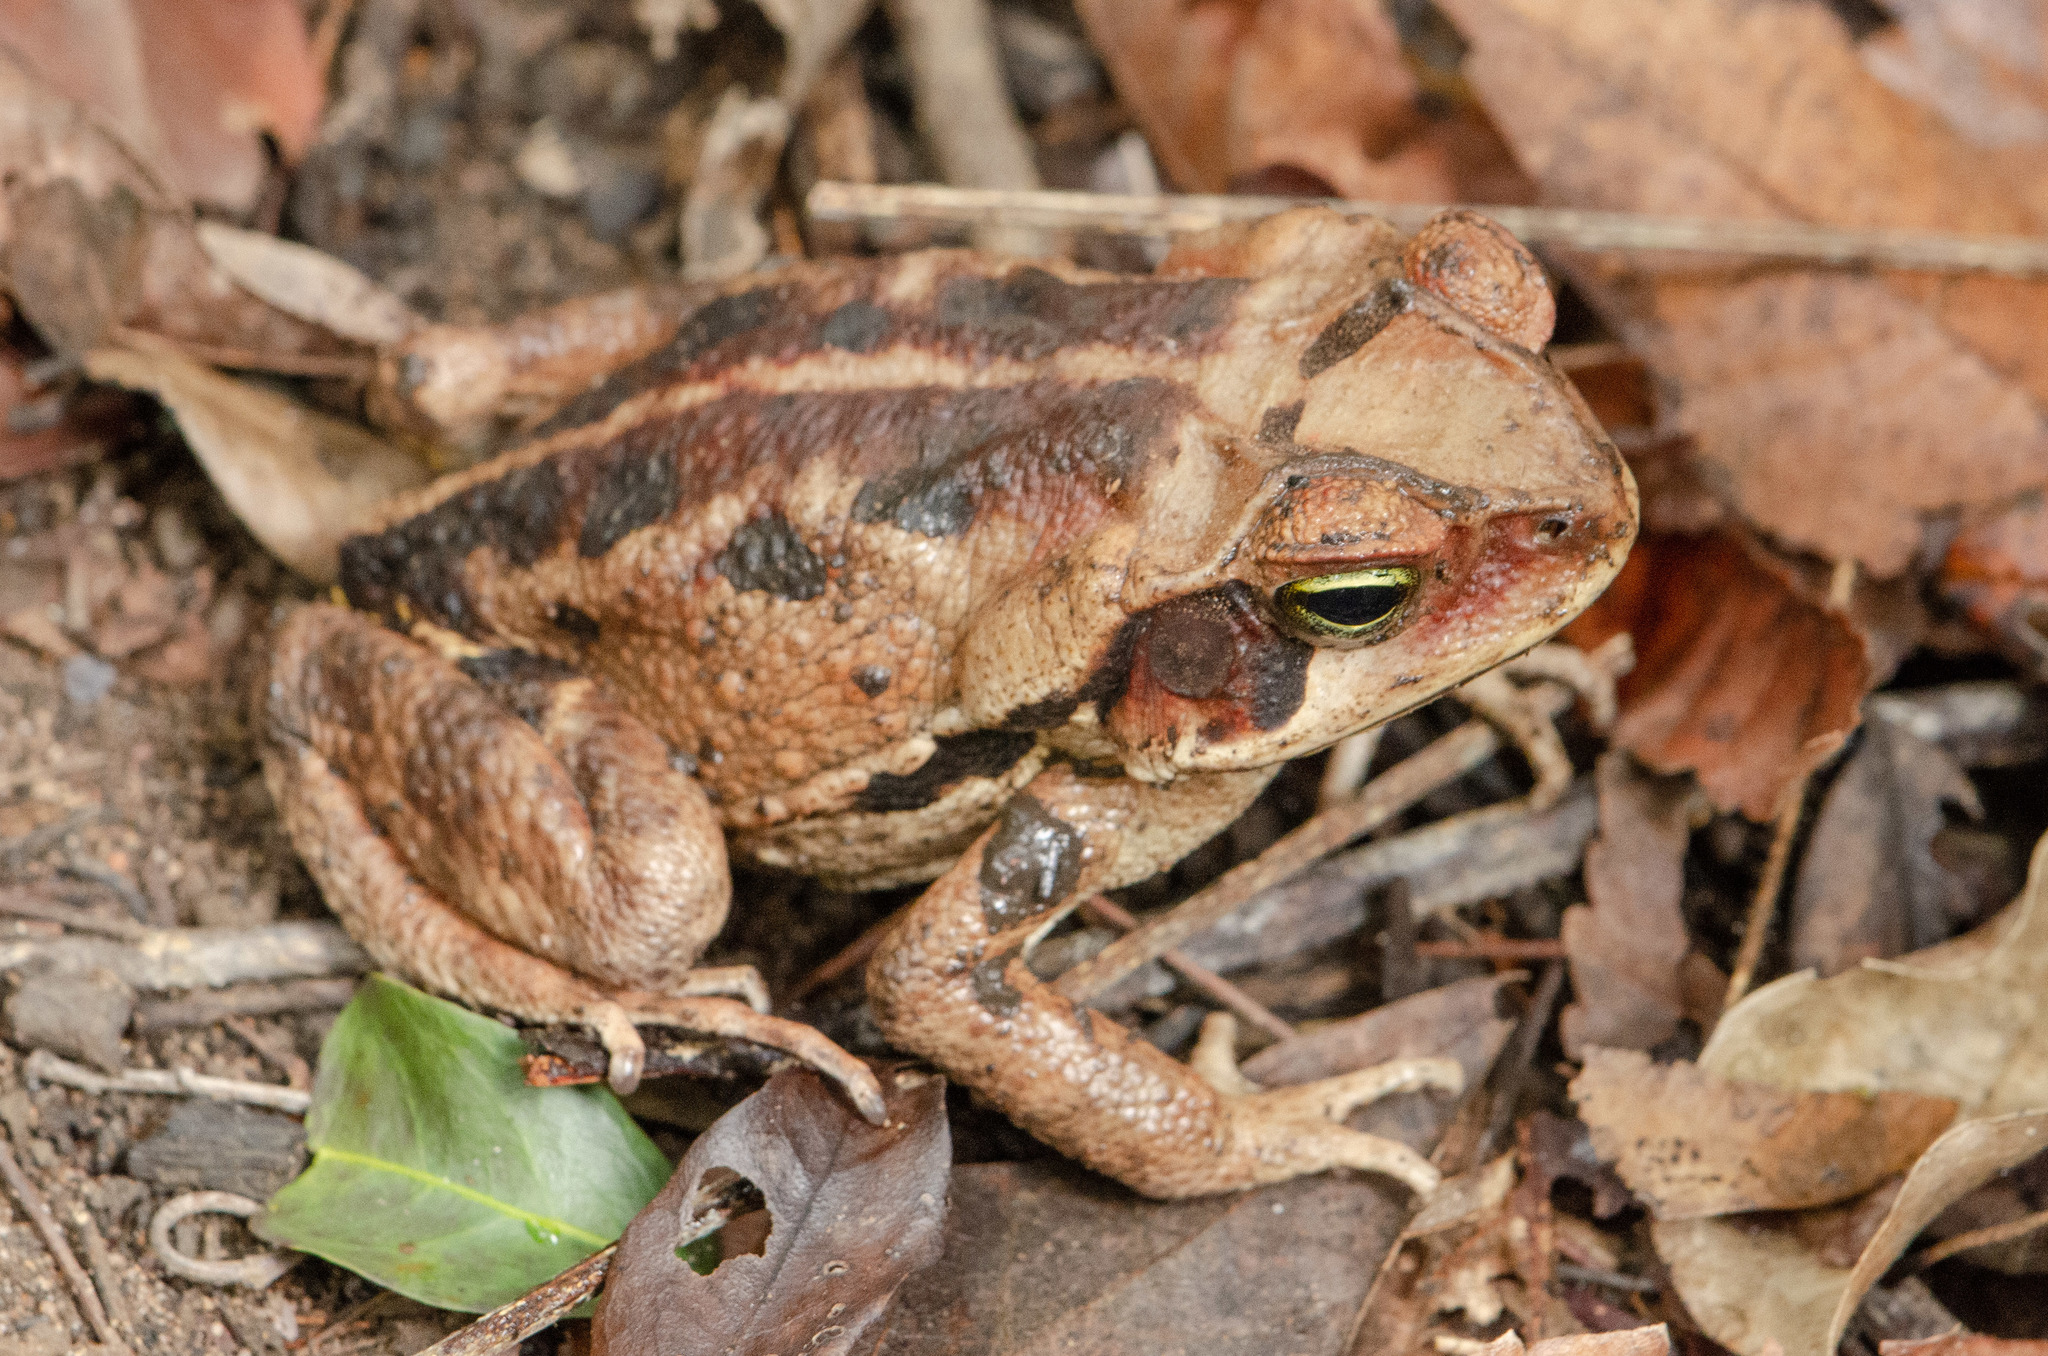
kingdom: Animalia
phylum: Chordata
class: Amphibia
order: Anura
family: Bufonidae
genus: Rhinella
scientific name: Rhinella crucifer
